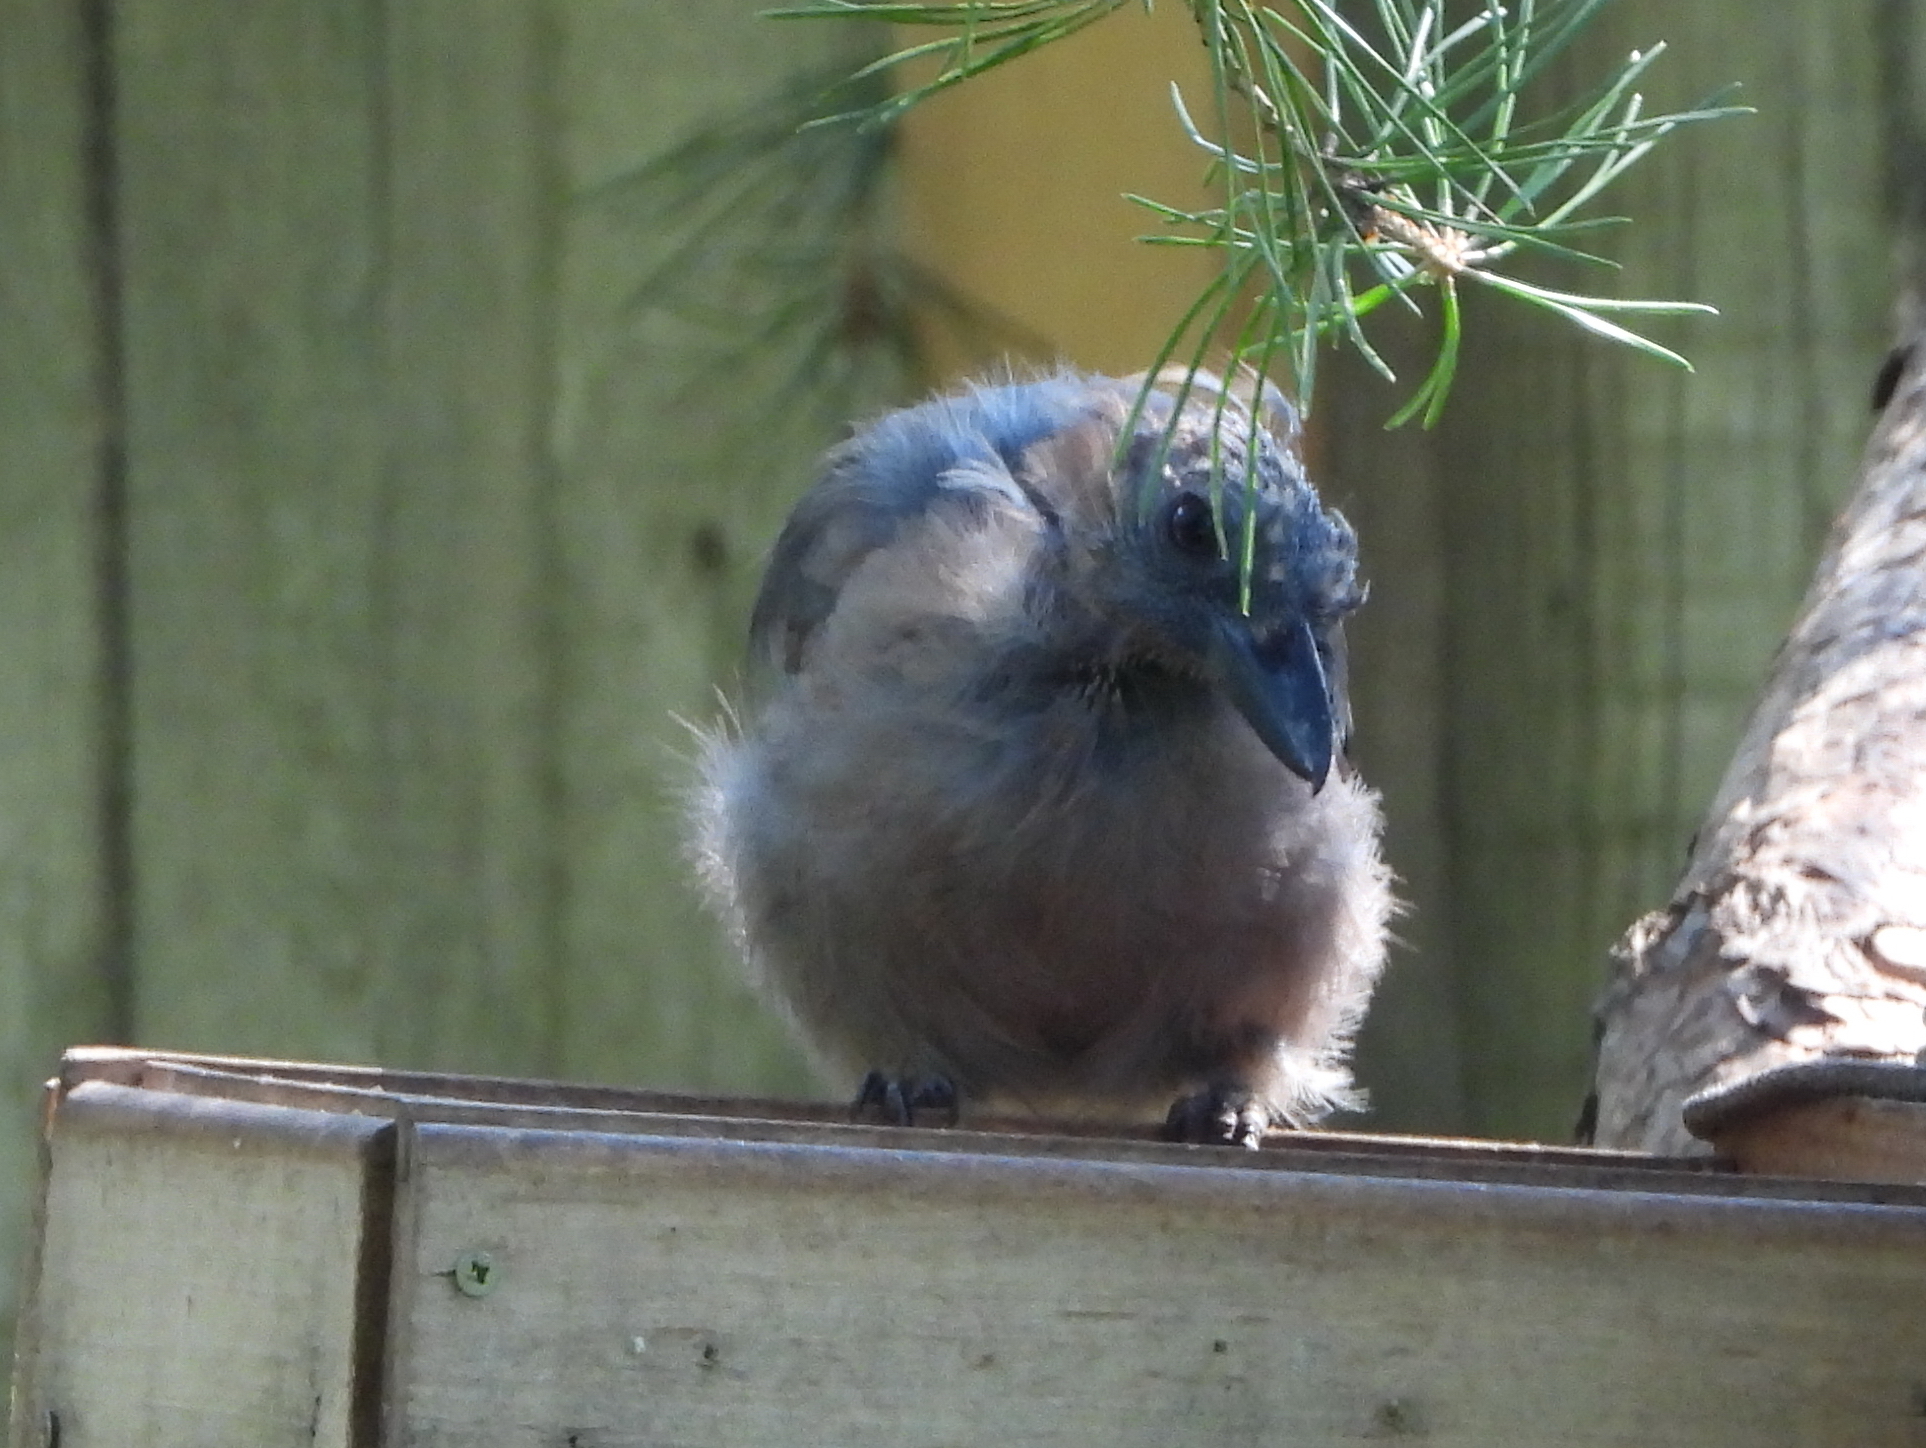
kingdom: Animalia
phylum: Chordata
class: Aves
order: Passeriformes
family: Corvidae
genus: Garrulus
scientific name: Garrulus glandarius
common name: Eurasian jay
